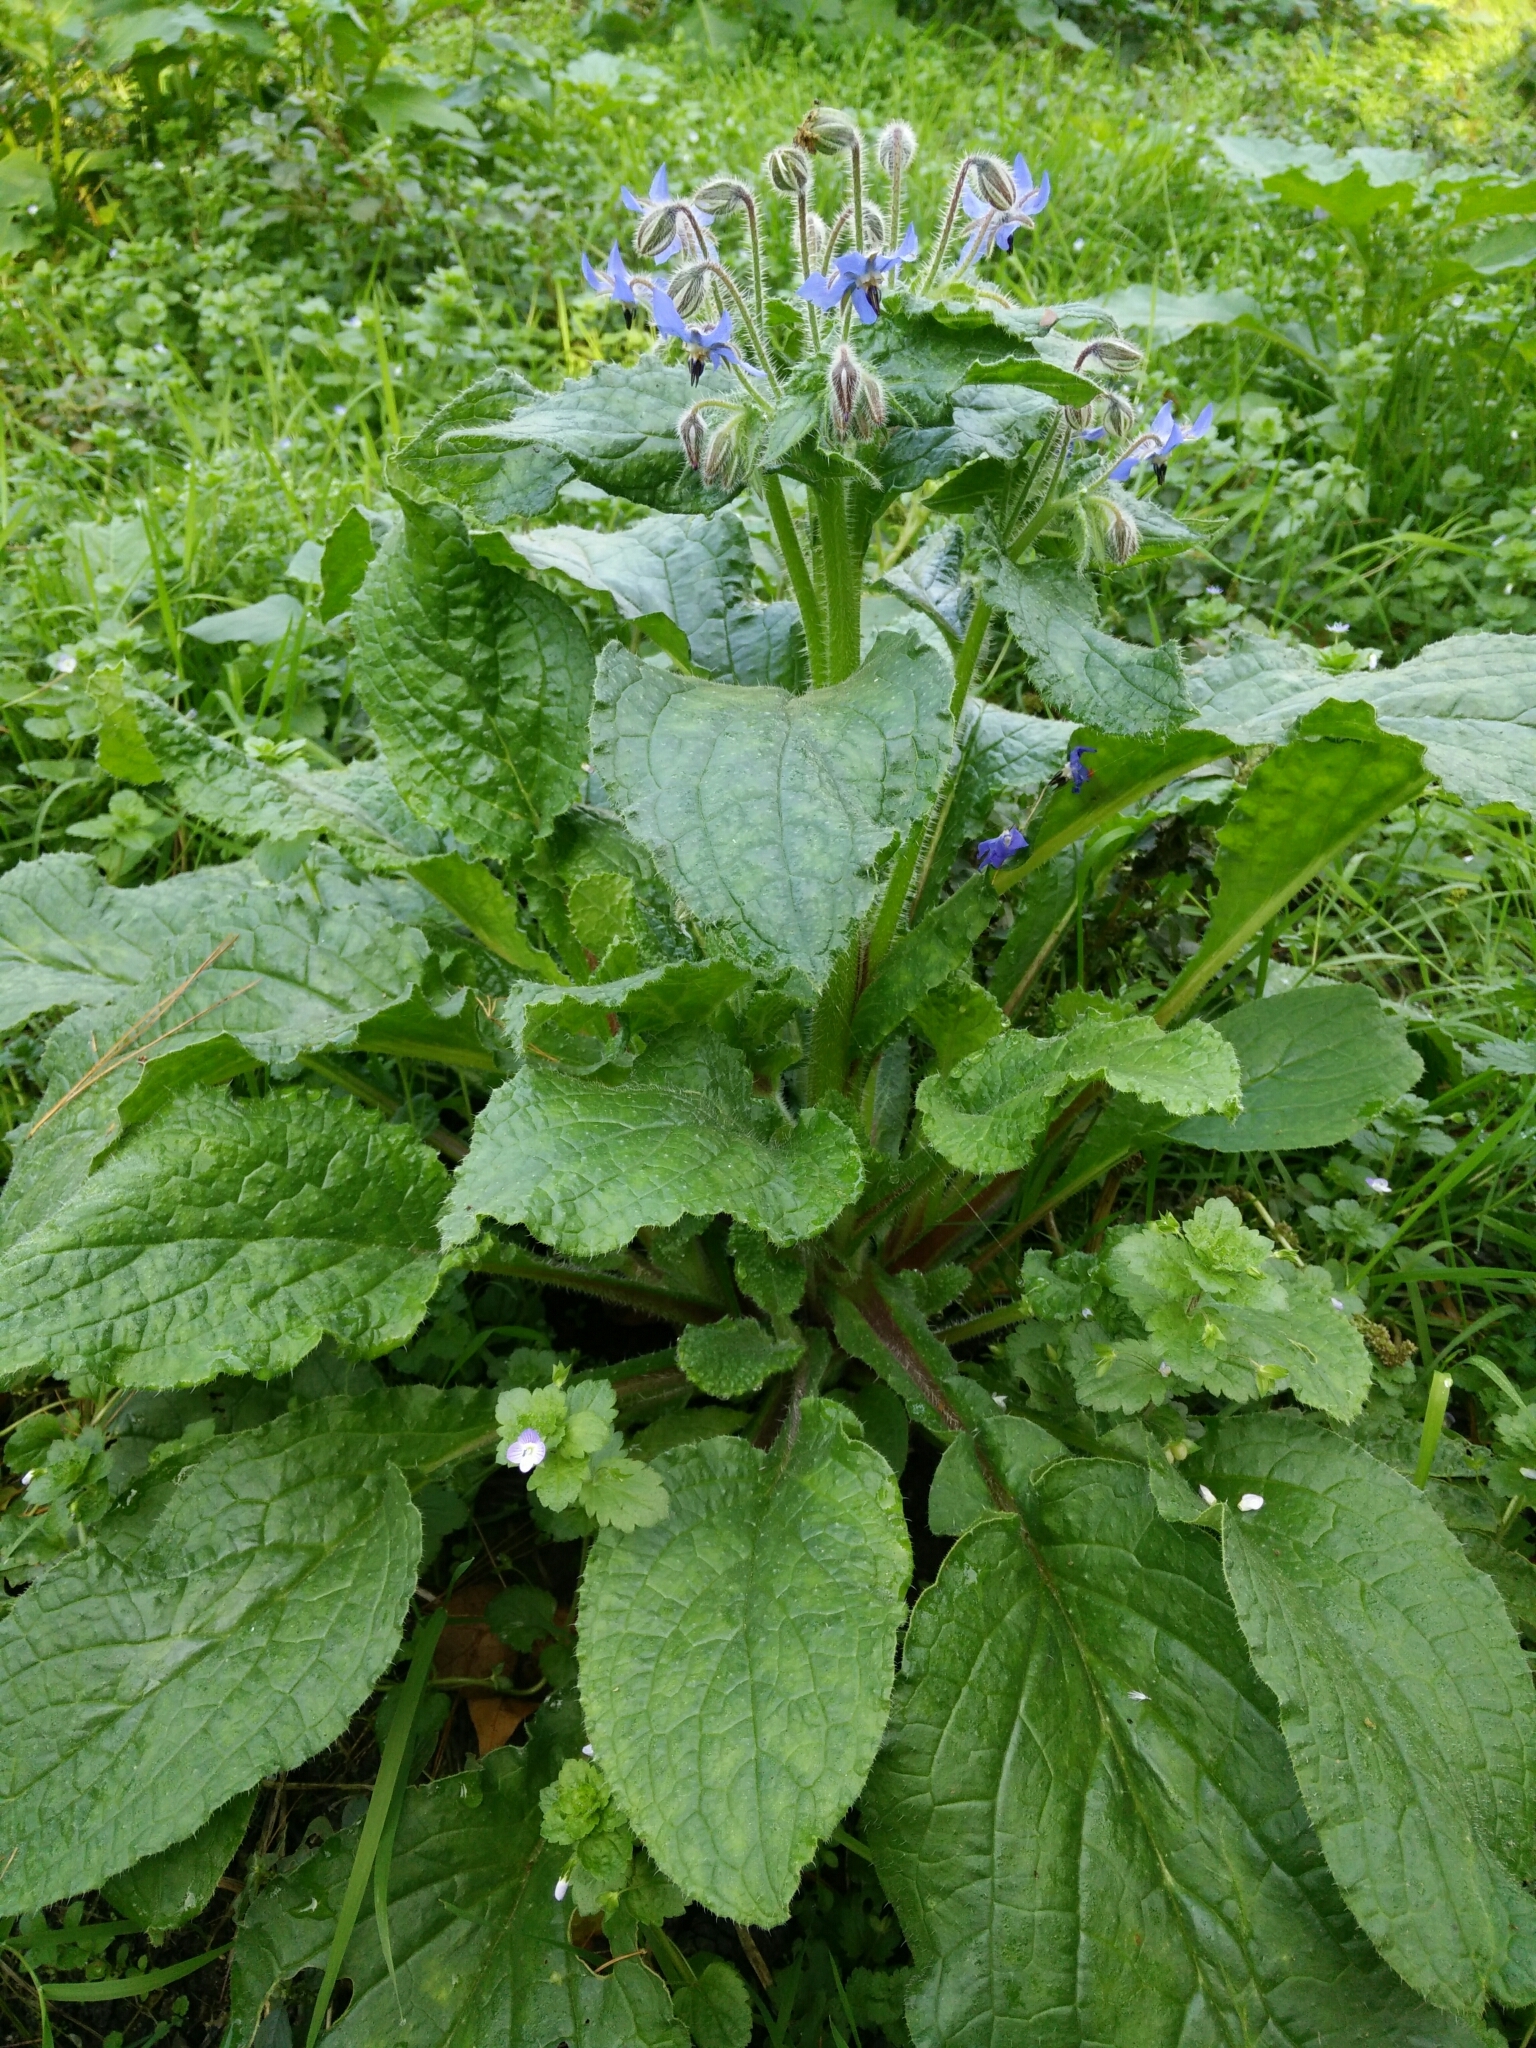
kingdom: Plantae
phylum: Tracheophyta
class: Magnoliopsida
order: Boraginales
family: Boraginaceae
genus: Borago
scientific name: Borago officinalis
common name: Borage
